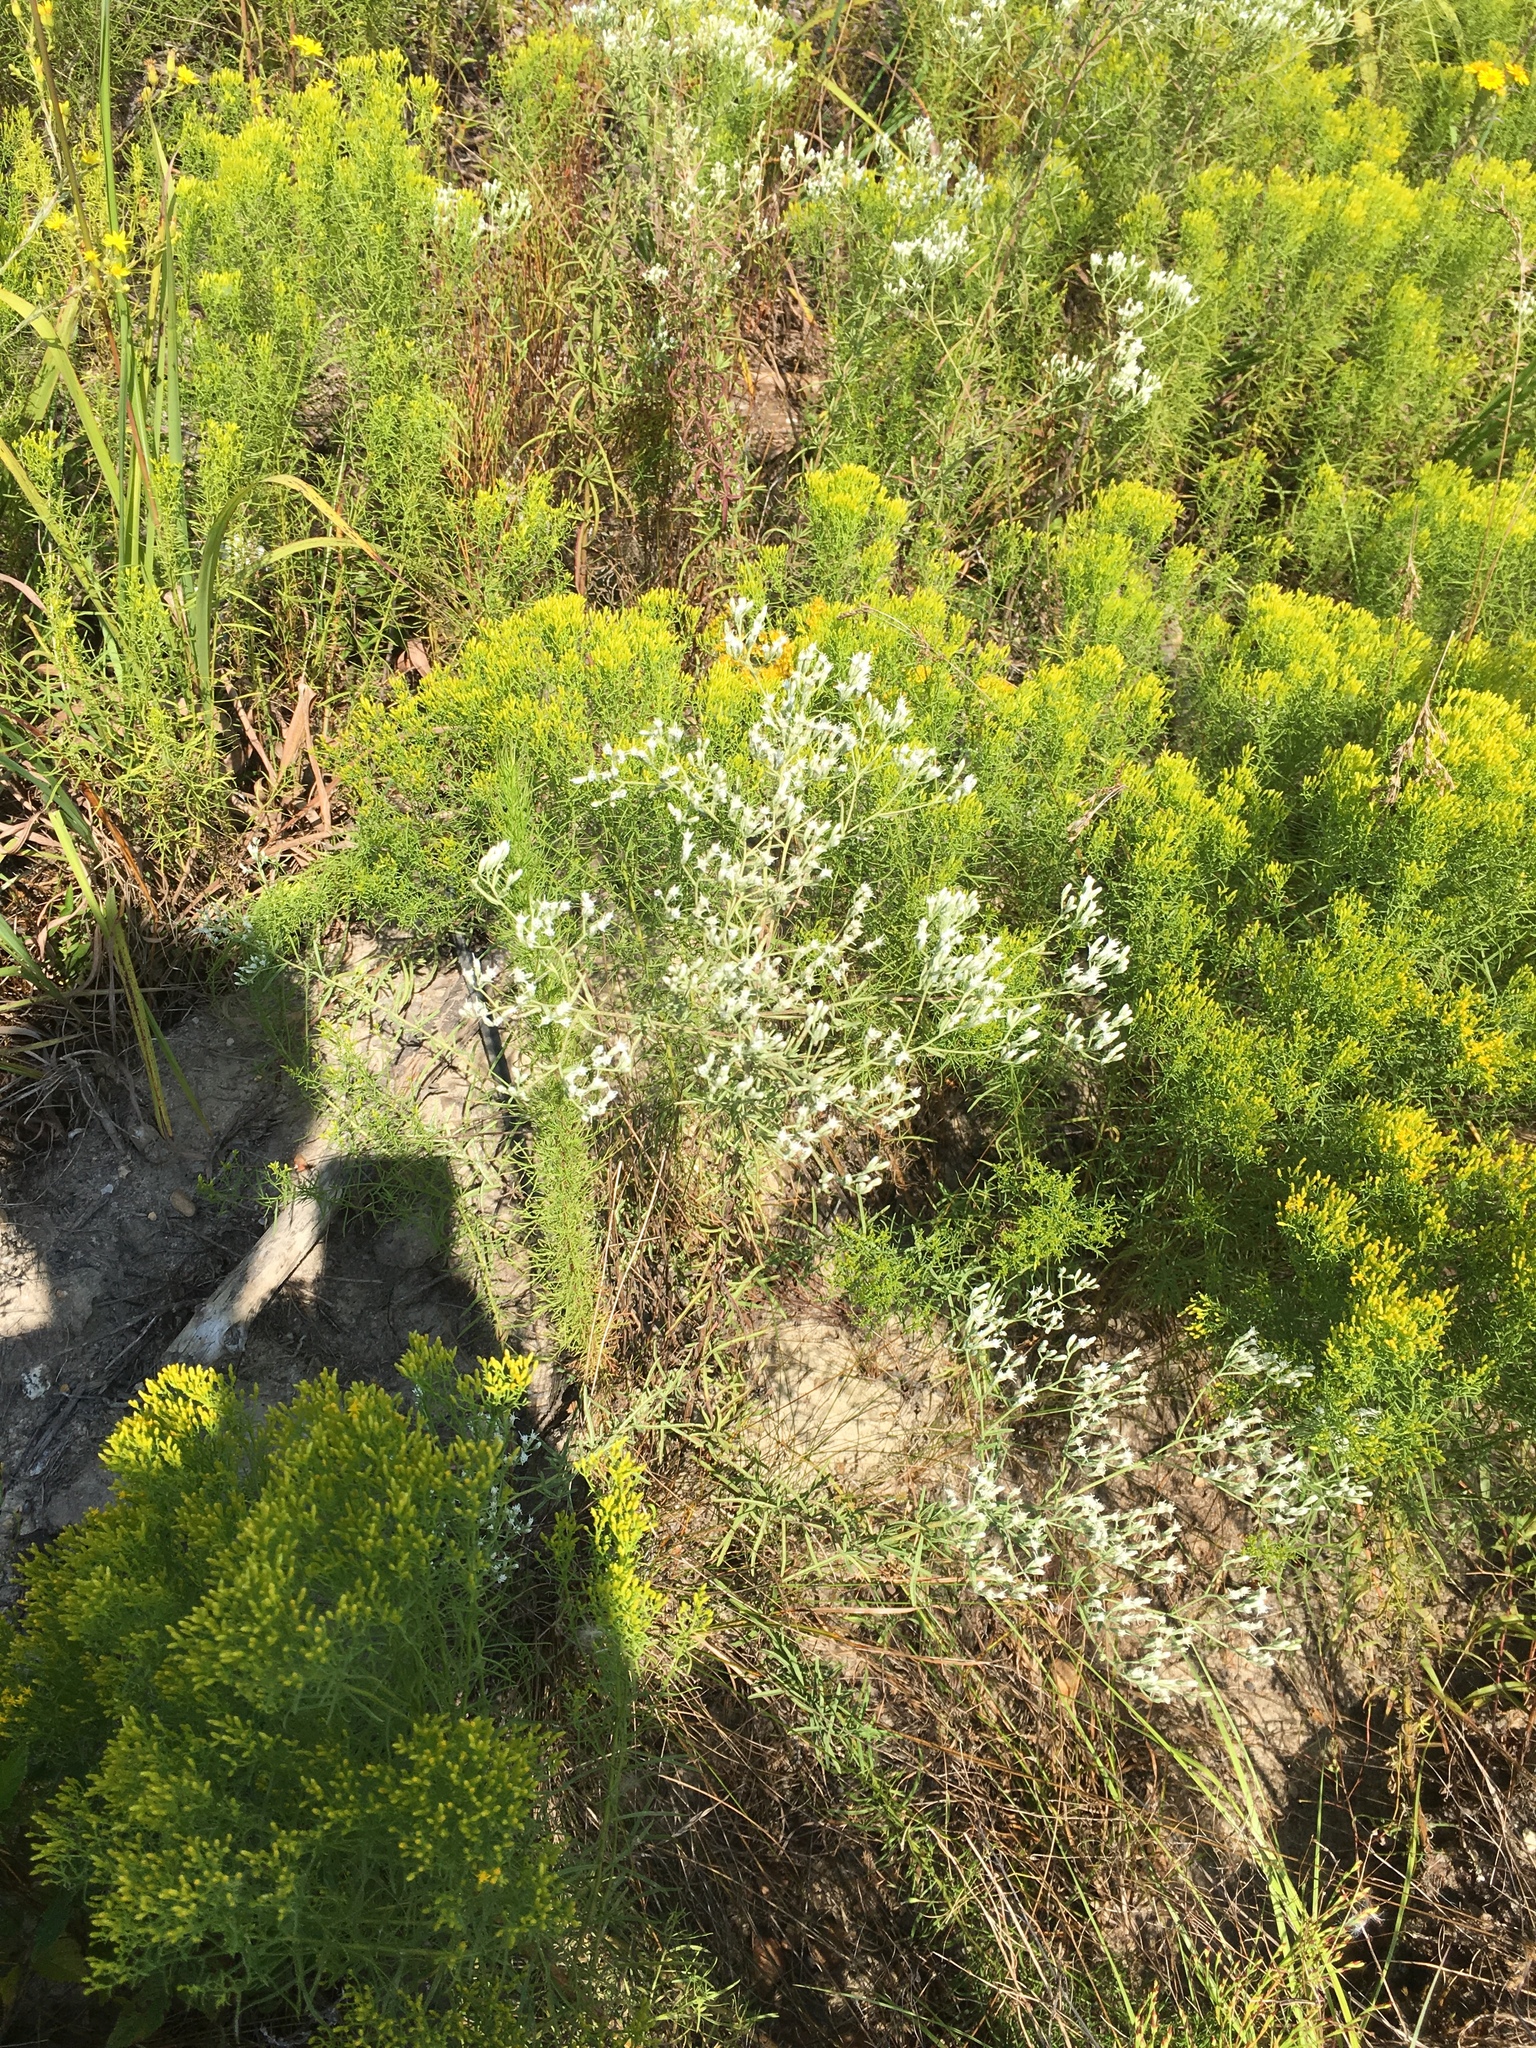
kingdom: Plantae
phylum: Tracheophyta
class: Magnoliopsida
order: Asterales
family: Asteraceae
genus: Eupatorium
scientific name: Eupatorium hyssopifolium
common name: Hyssop-leaf thoroughwort
